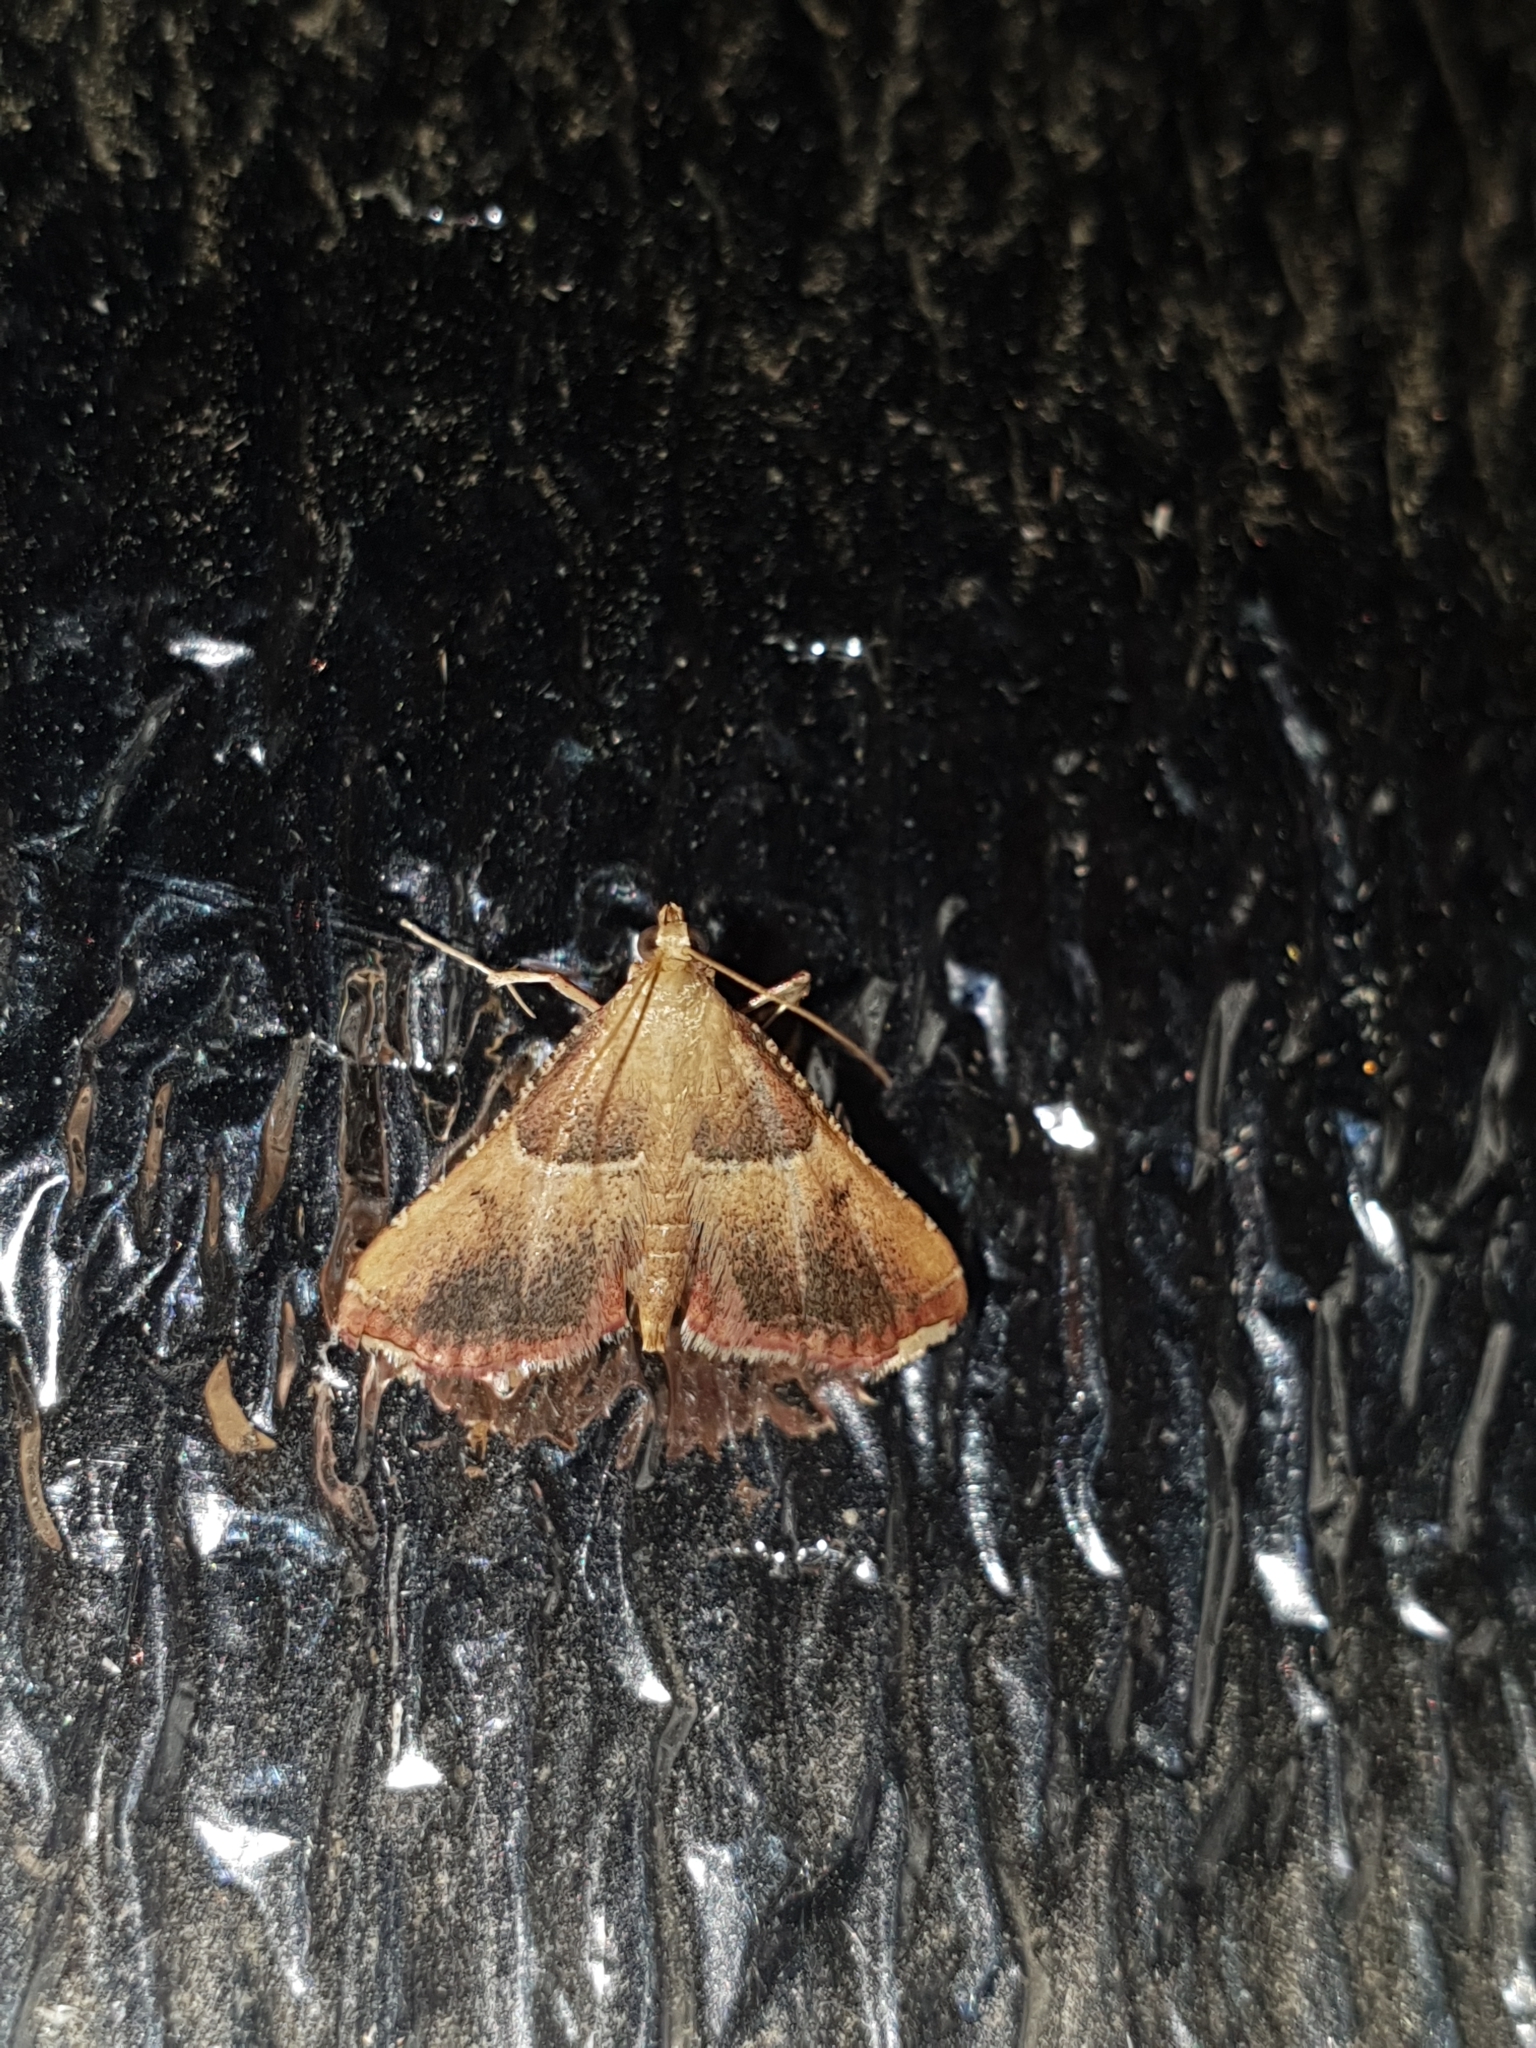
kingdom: Animalia
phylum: Arthropoda
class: Insecta
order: Lepidoptera
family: Pyralidae
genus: Endotricha
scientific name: Endotricha flammealis
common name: Rosy tabby
